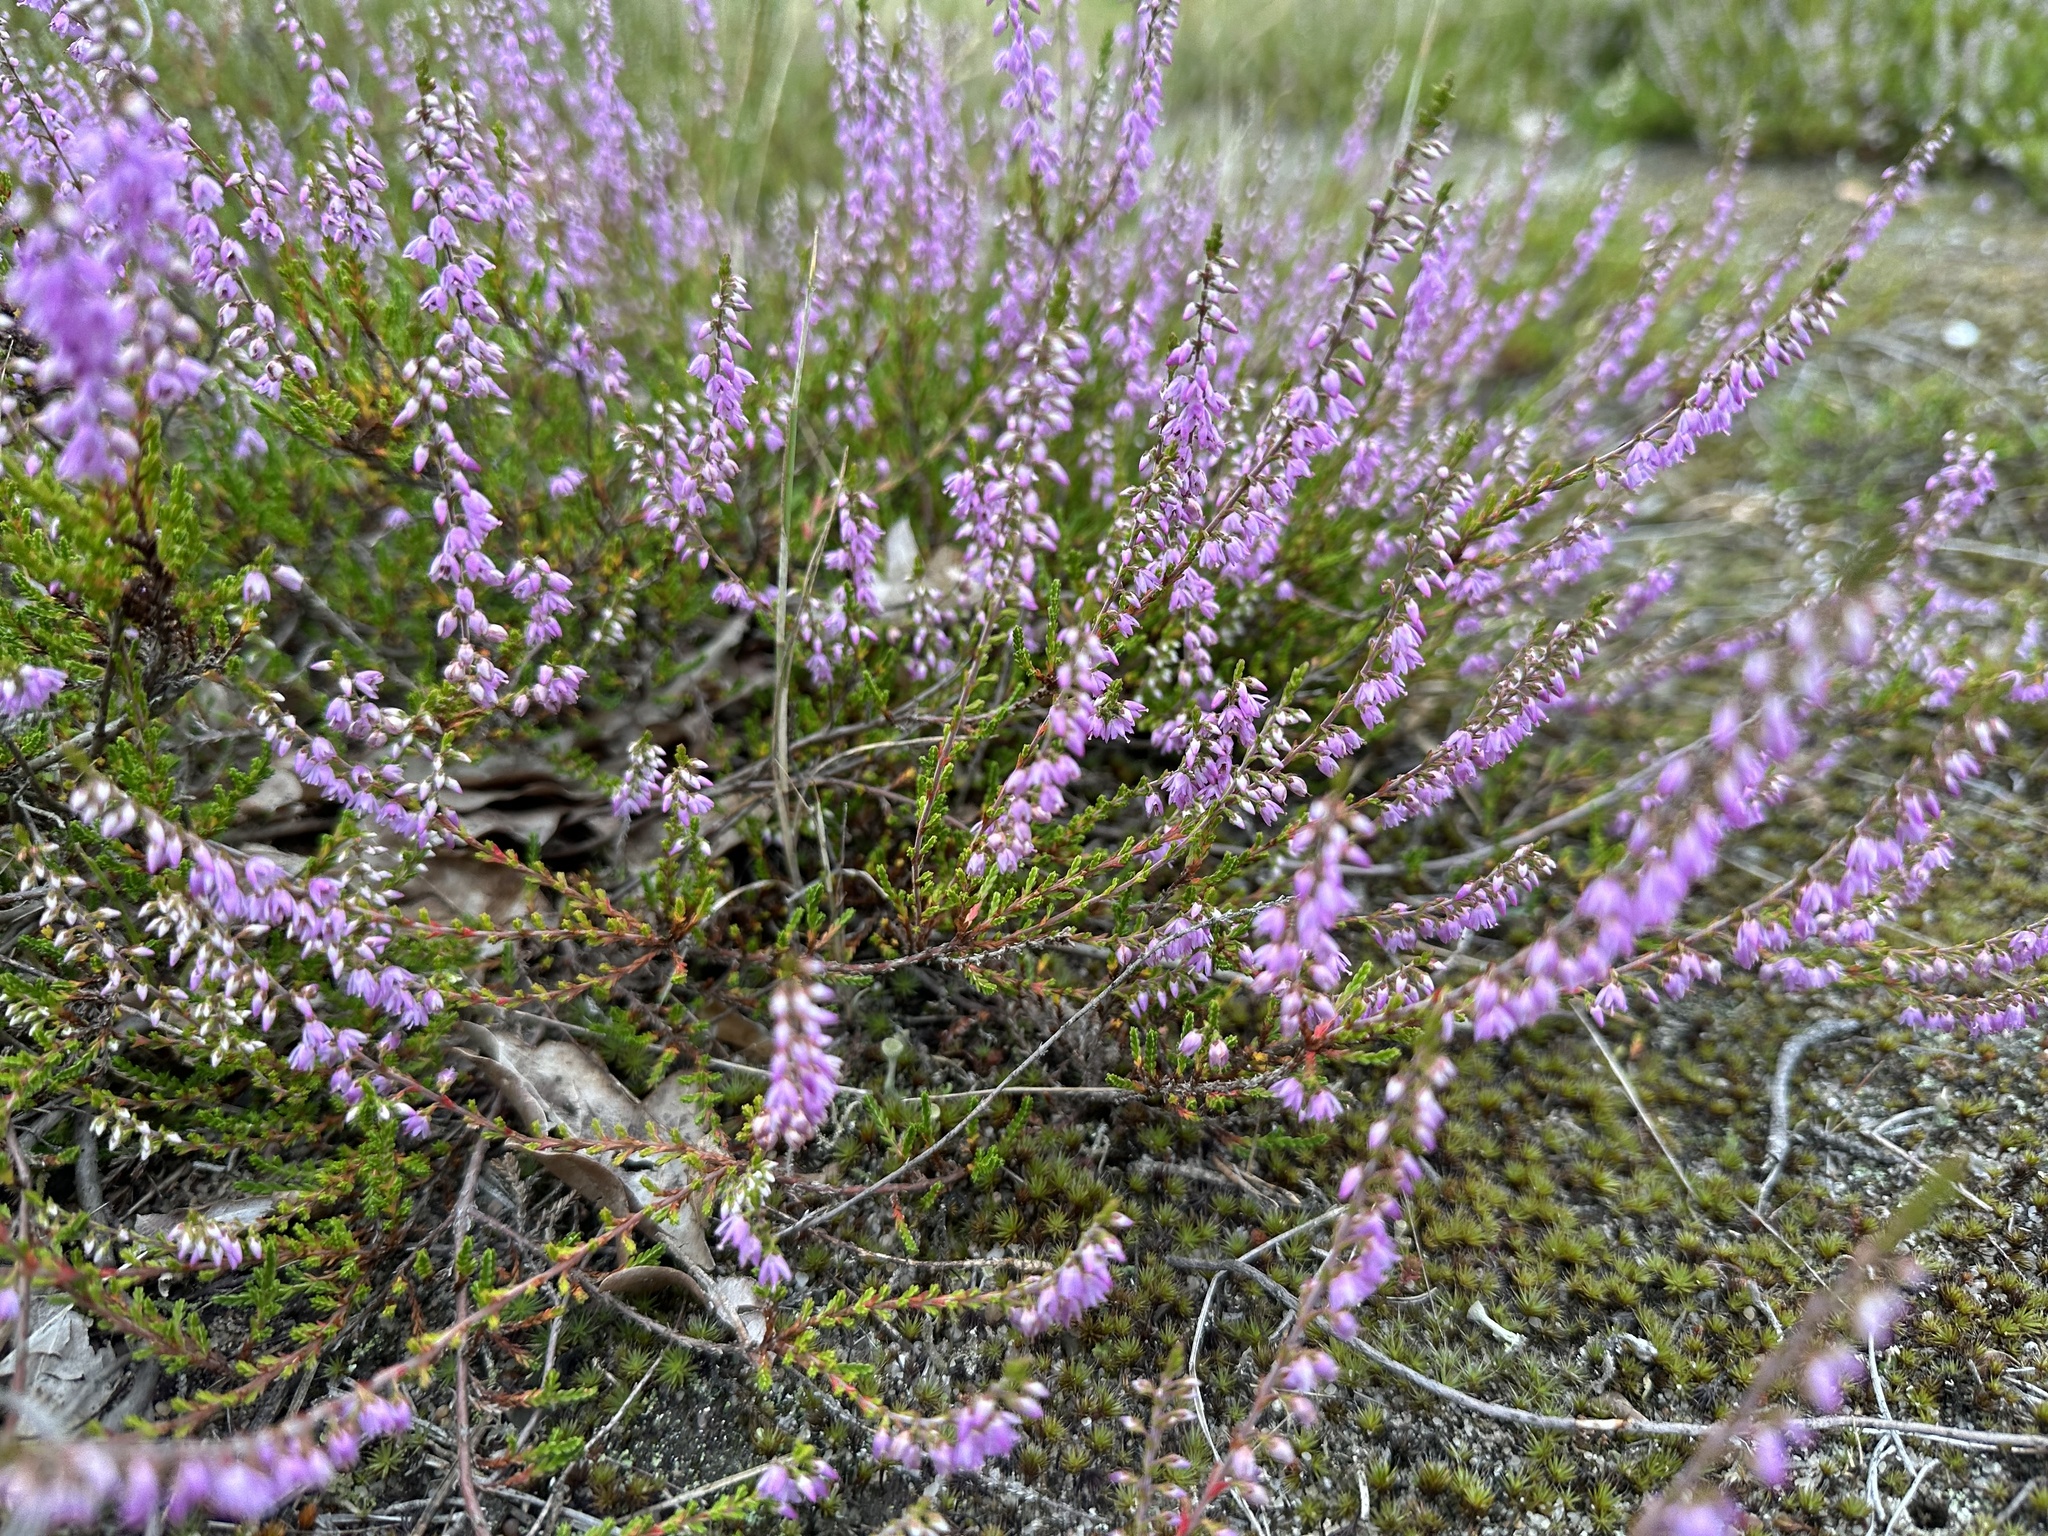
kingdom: Plantae
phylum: Tracheophyta
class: Magnoliopsida
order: Ericales
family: Ericaceae
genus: Calluna
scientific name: Calluna vulgaris
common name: Heather
